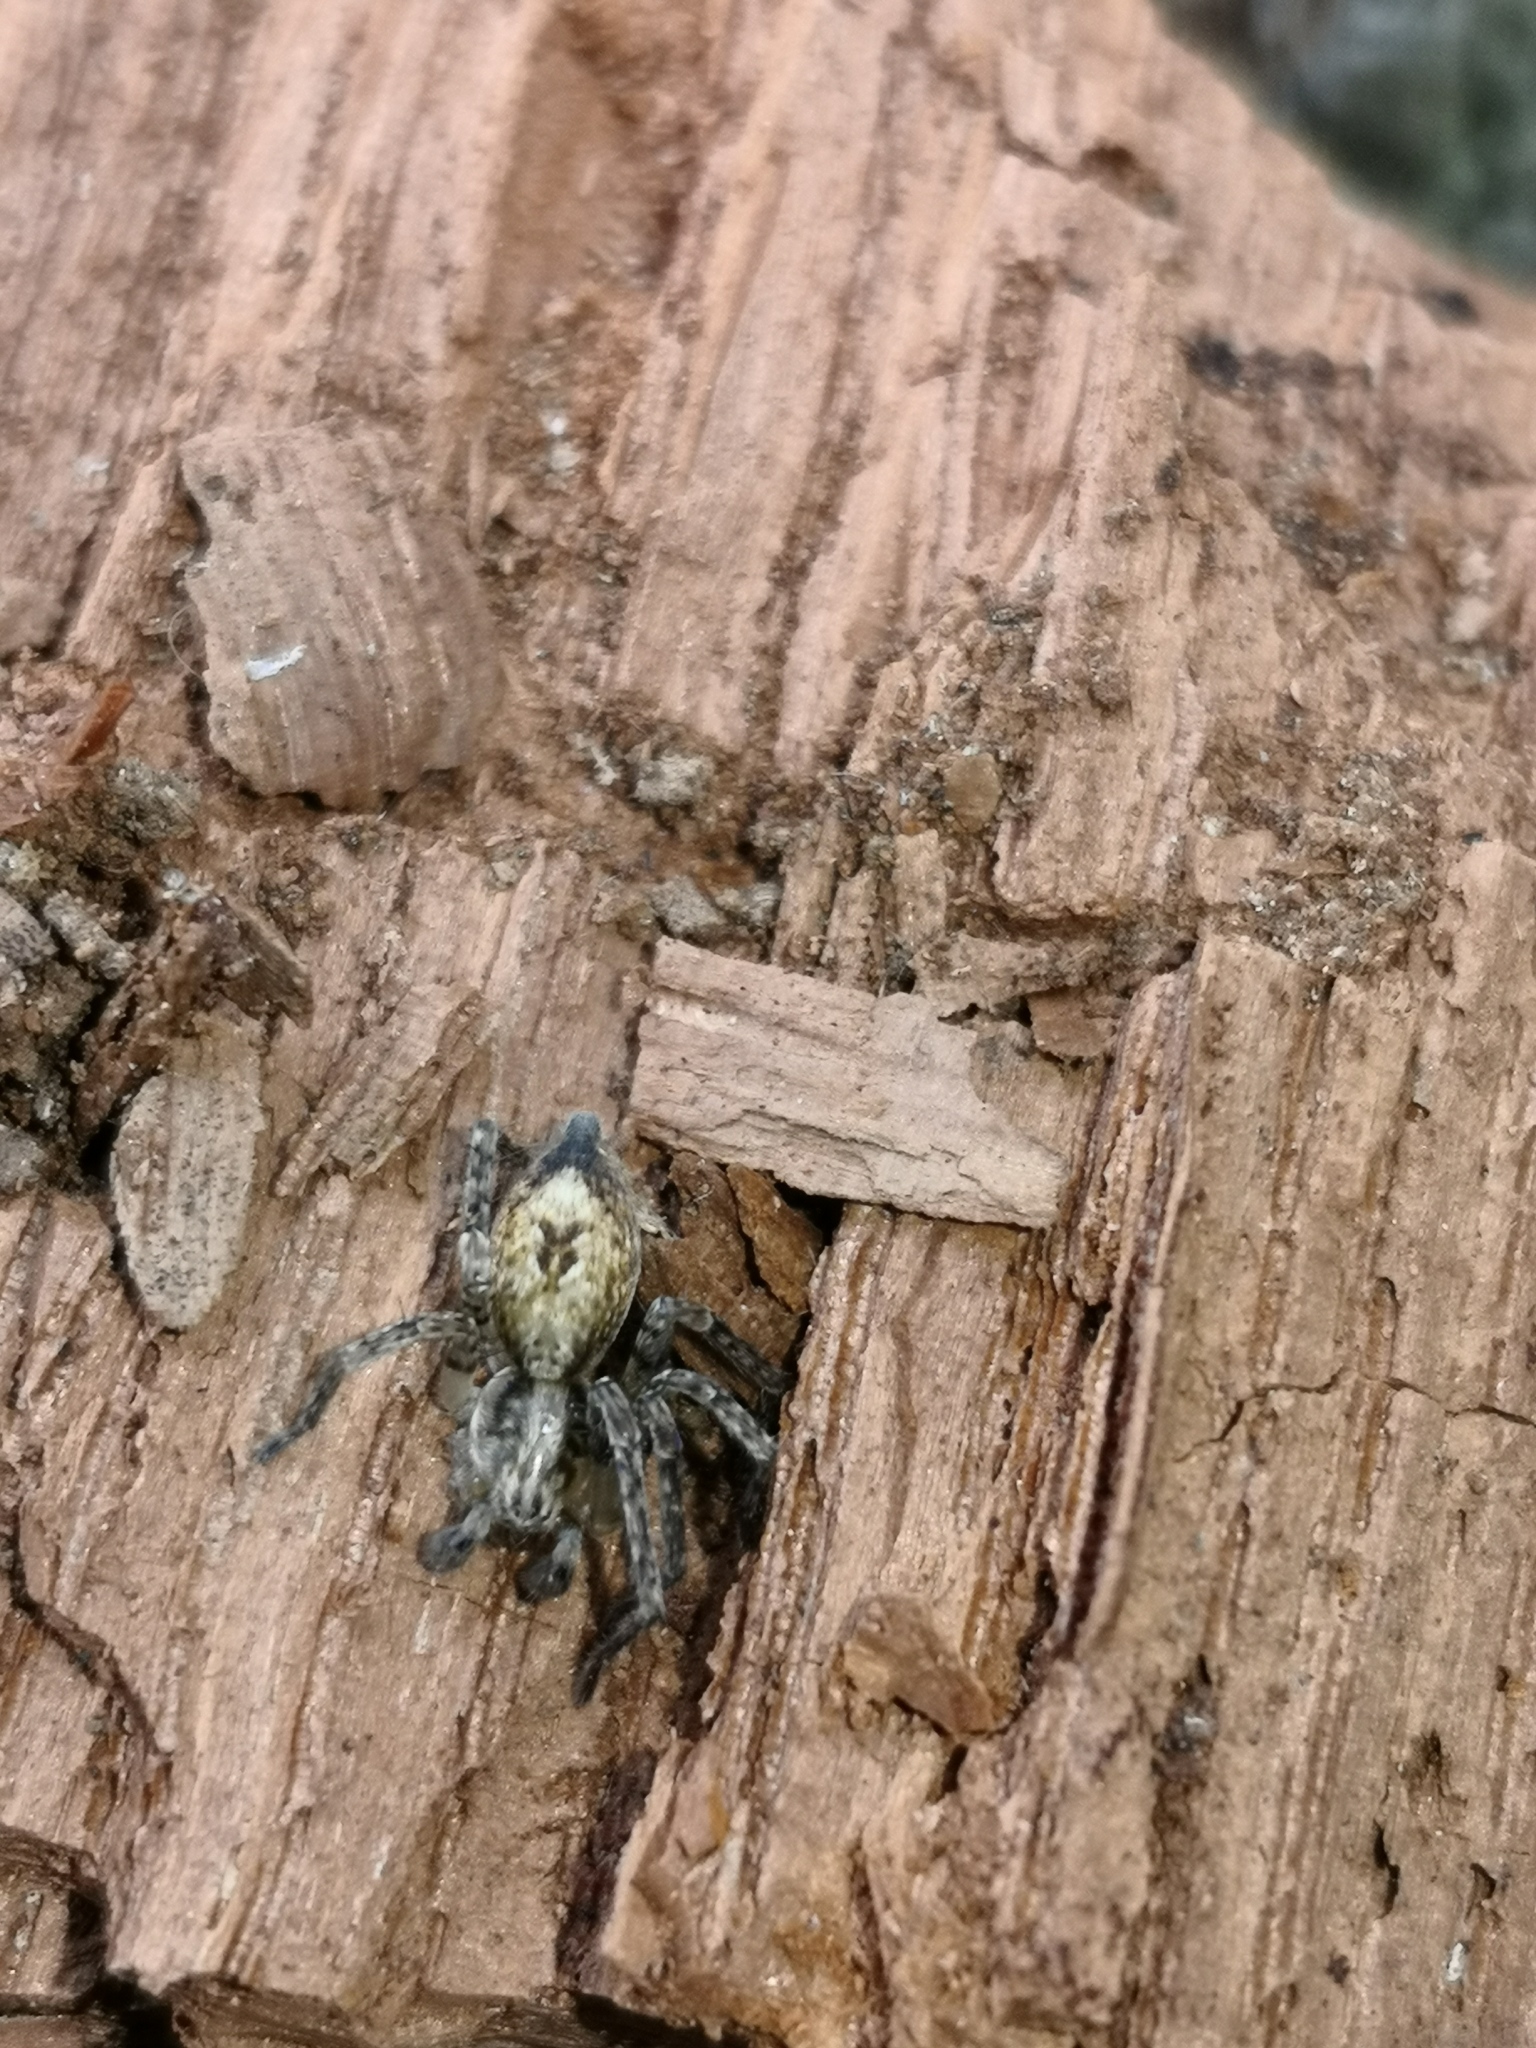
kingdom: Animalia
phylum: Arthropoda
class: Arachnida
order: Araneae
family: Anyphaenidae
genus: Anyphaena
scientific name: Anyphaena accentuata
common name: Buzzing spider
